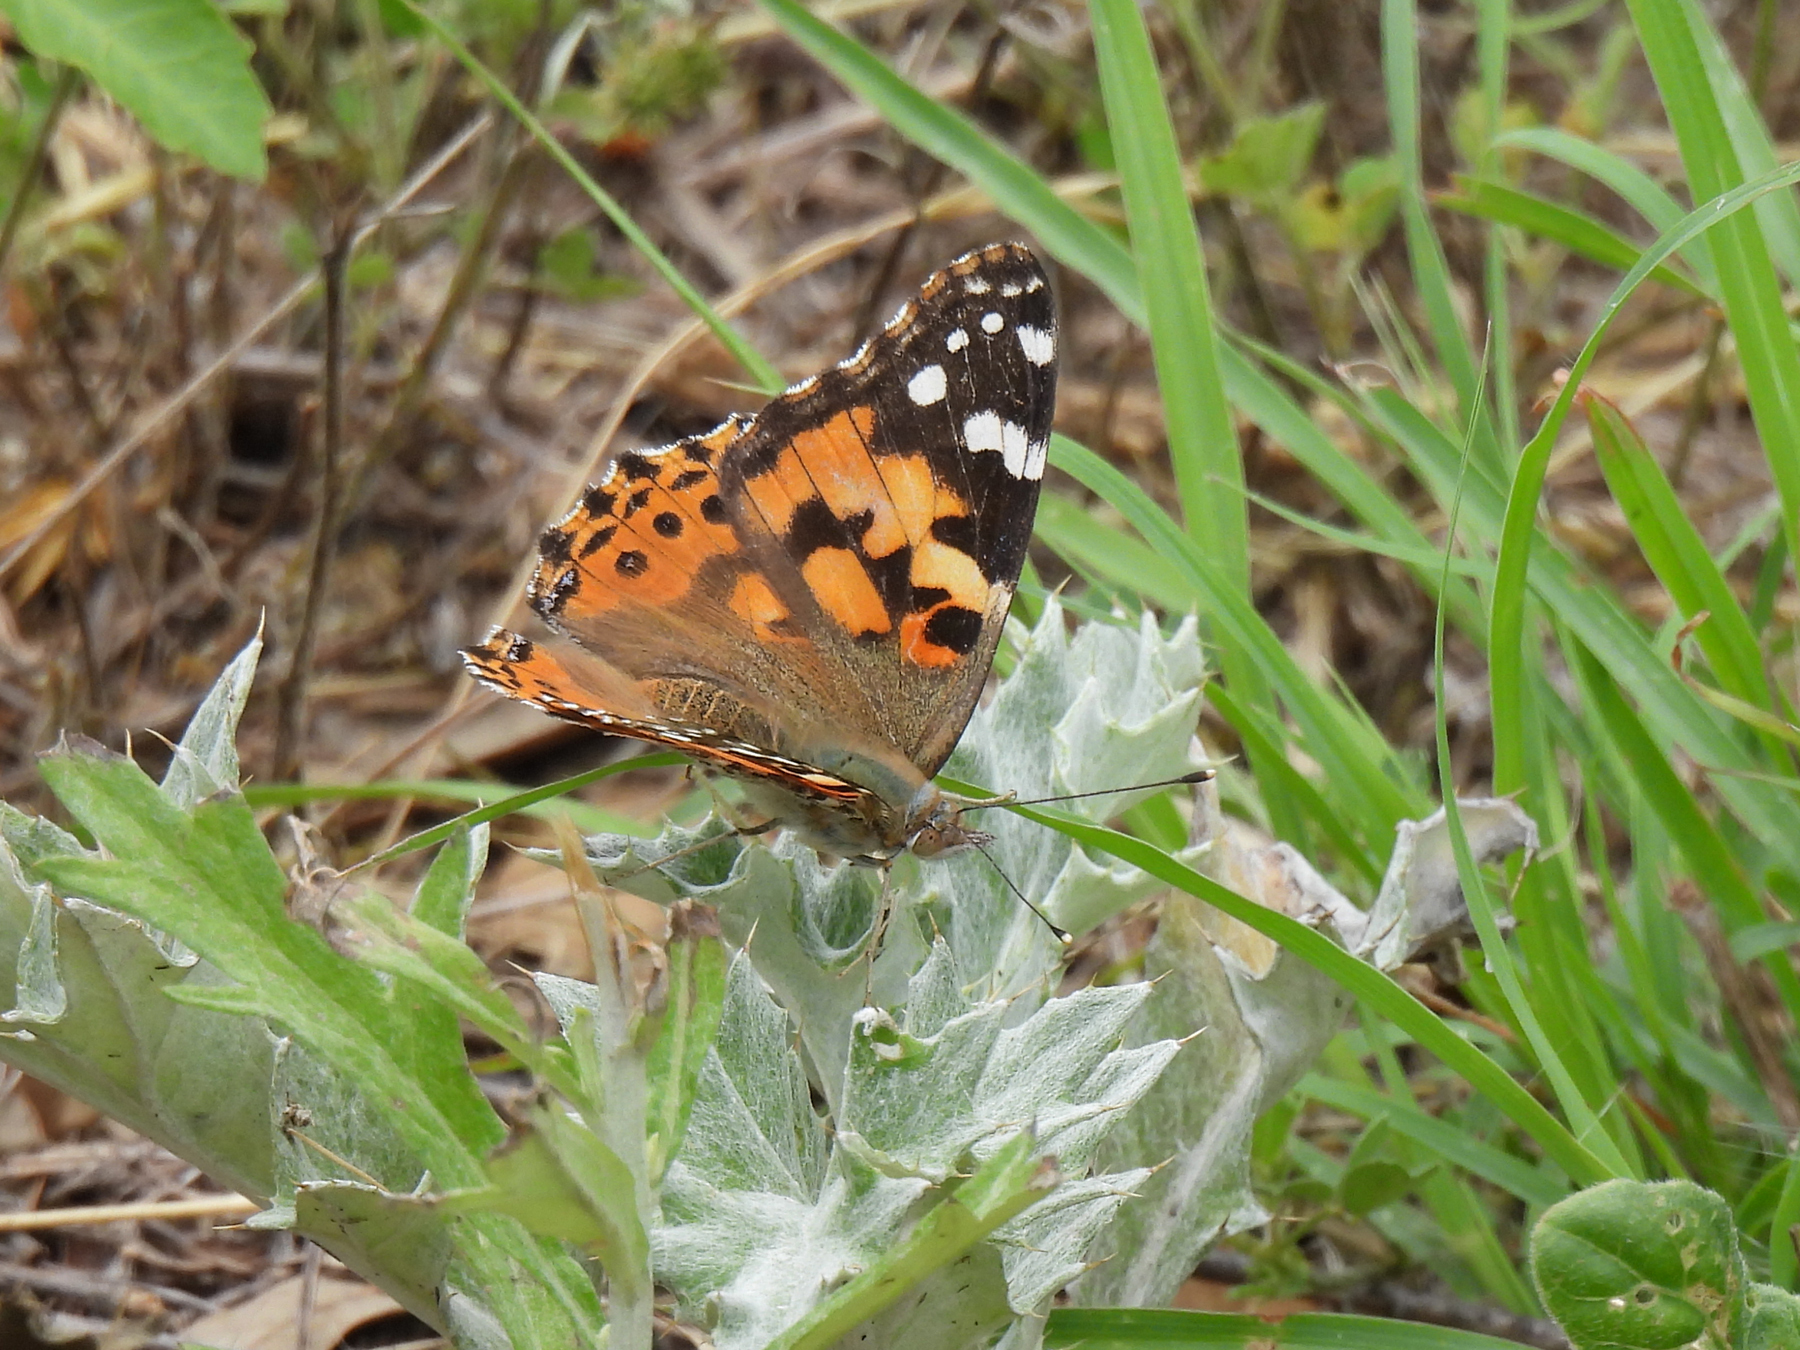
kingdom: Animalia
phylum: Arthropoda
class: Insecta
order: Lepidoptera
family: Nymphalidae
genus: Vanessa
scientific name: Vanessa cardui
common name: Painted lady
